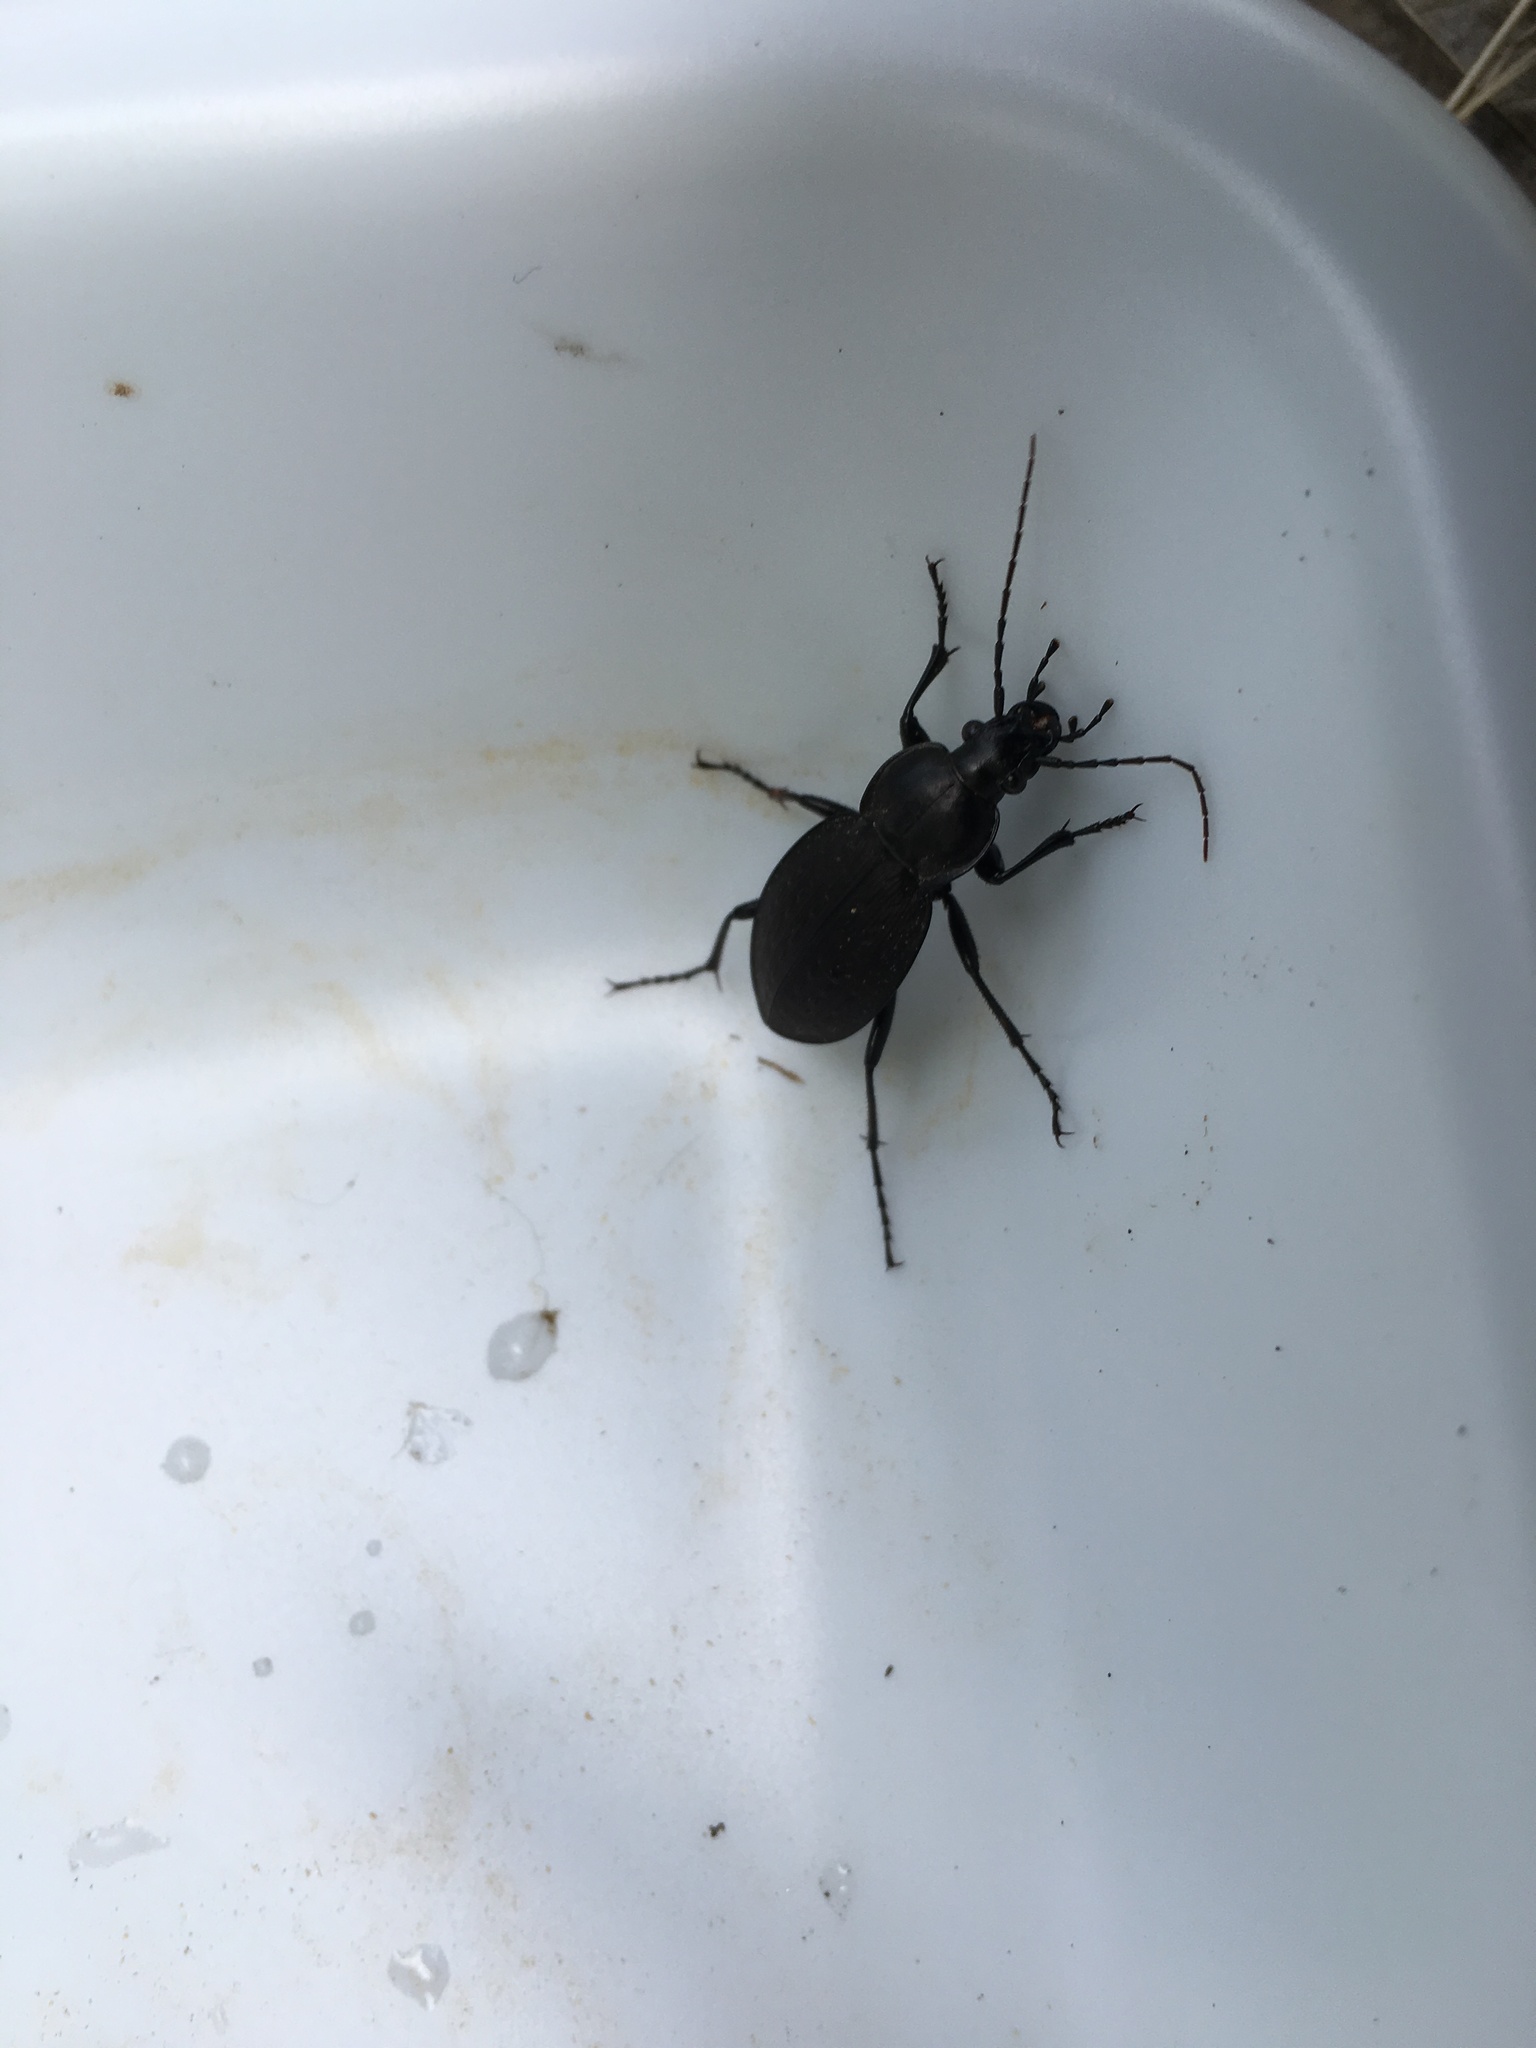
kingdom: Animalia
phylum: Arthropoda
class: Insecta
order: Coleoptera
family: Carabidae
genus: Carabus
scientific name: Carabus vinctus
